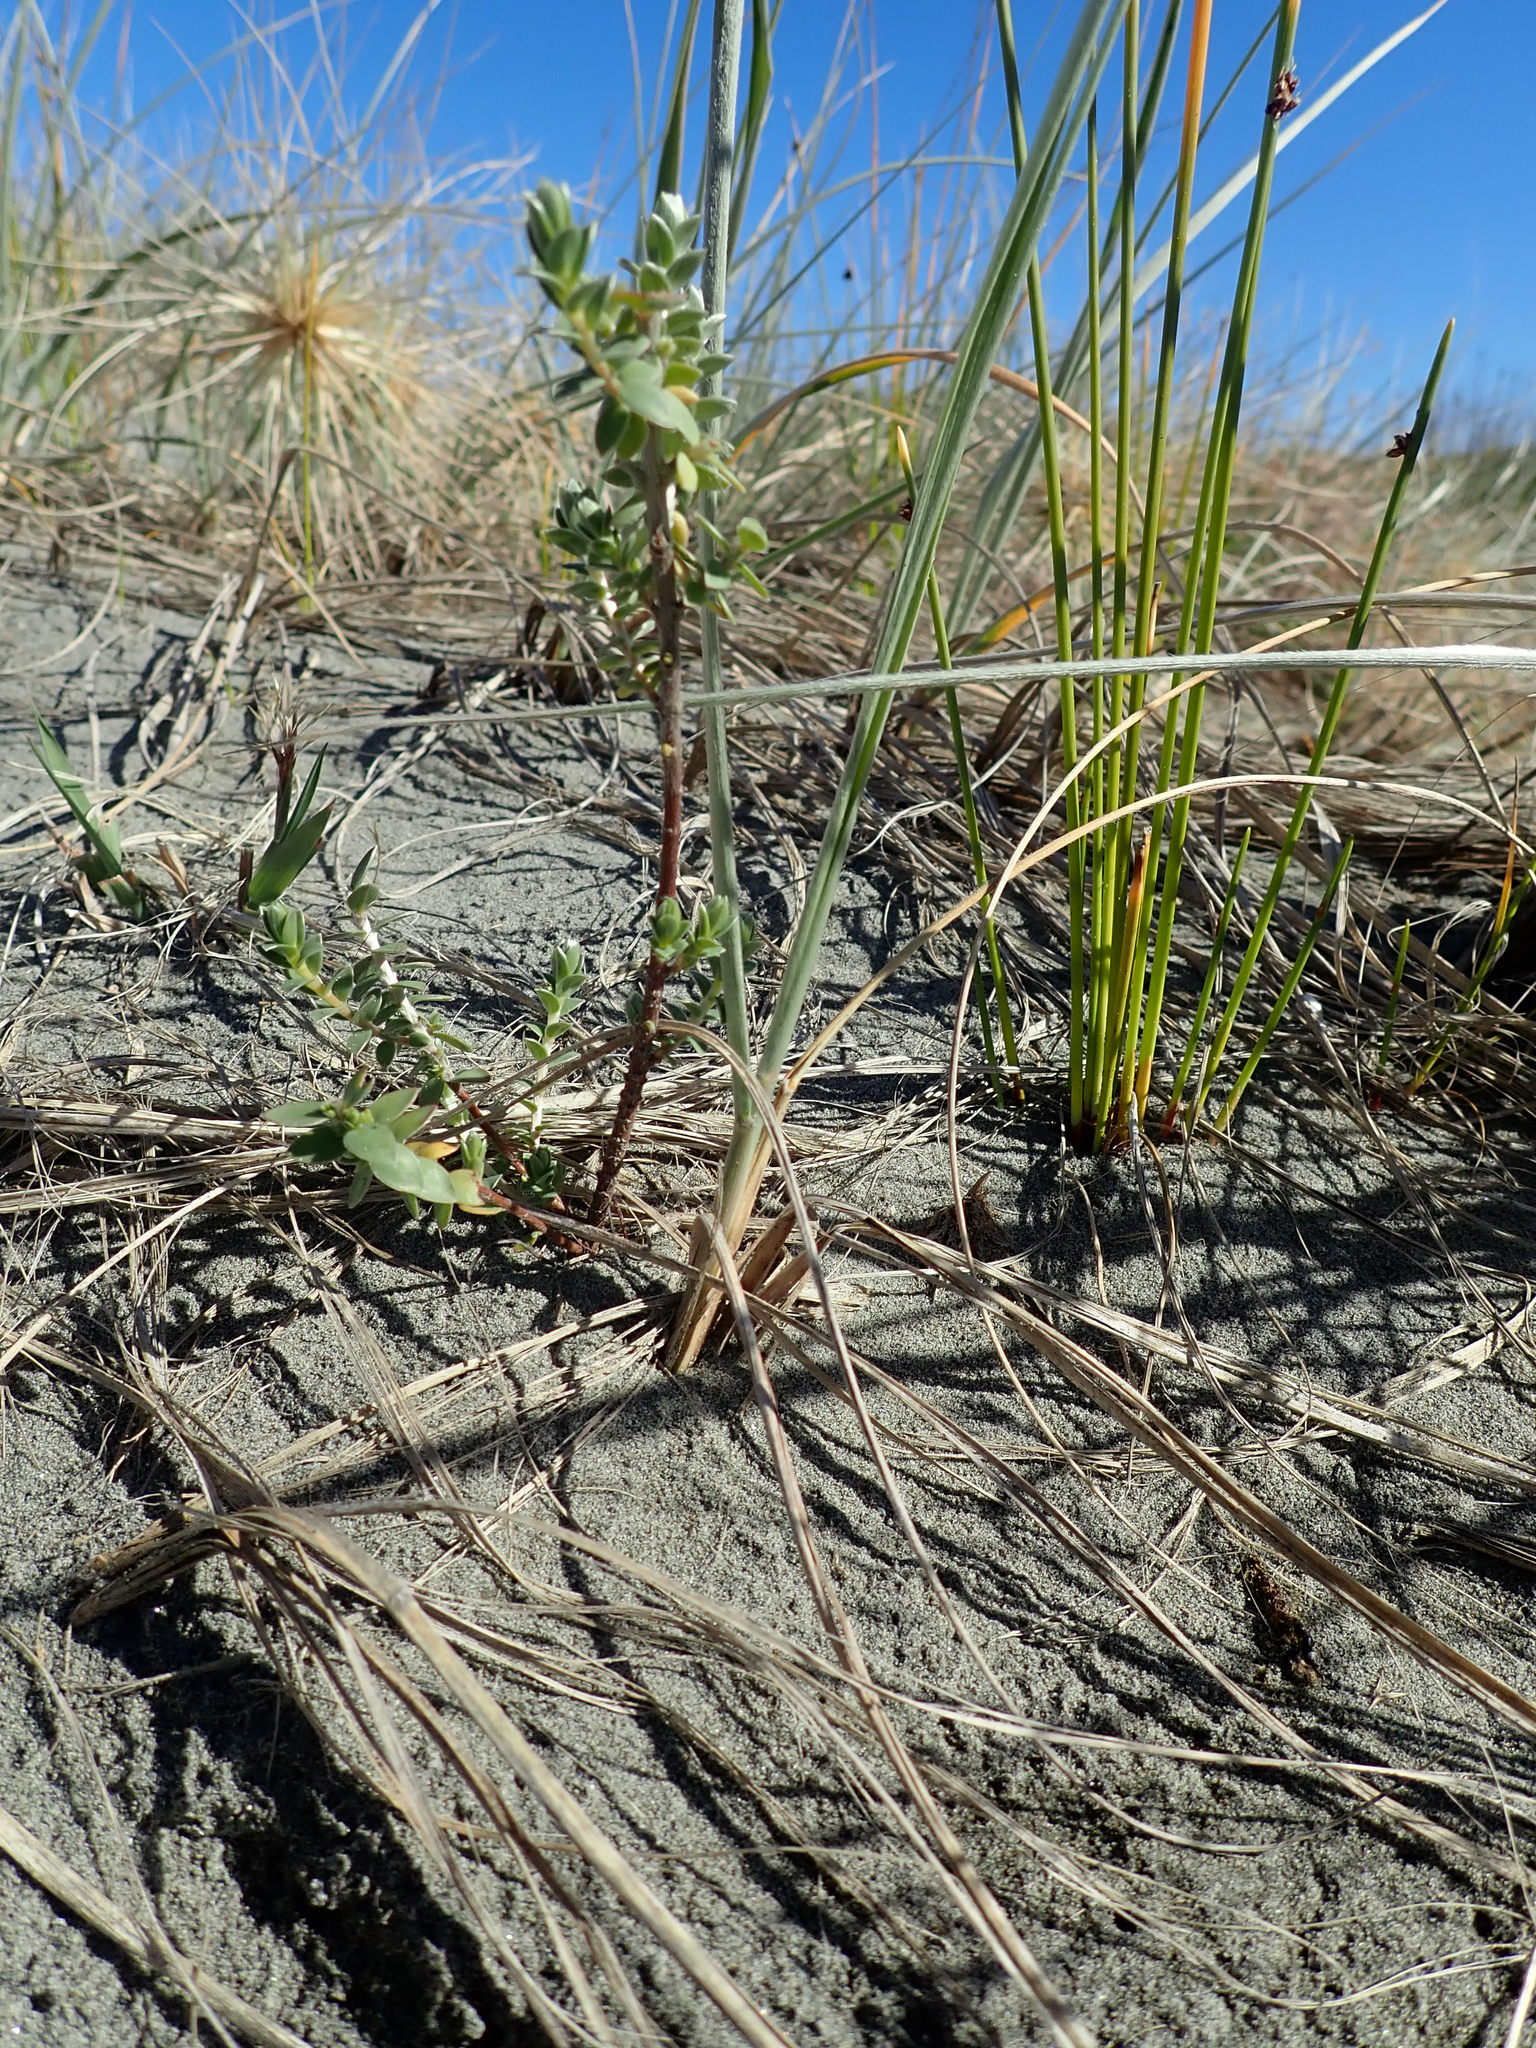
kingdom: Plantae
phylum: Tracheophyta
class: Magnoliopsida
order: Malvales
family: Thymelaeaceae
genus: Pimelea
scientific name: Pimelea villosa
